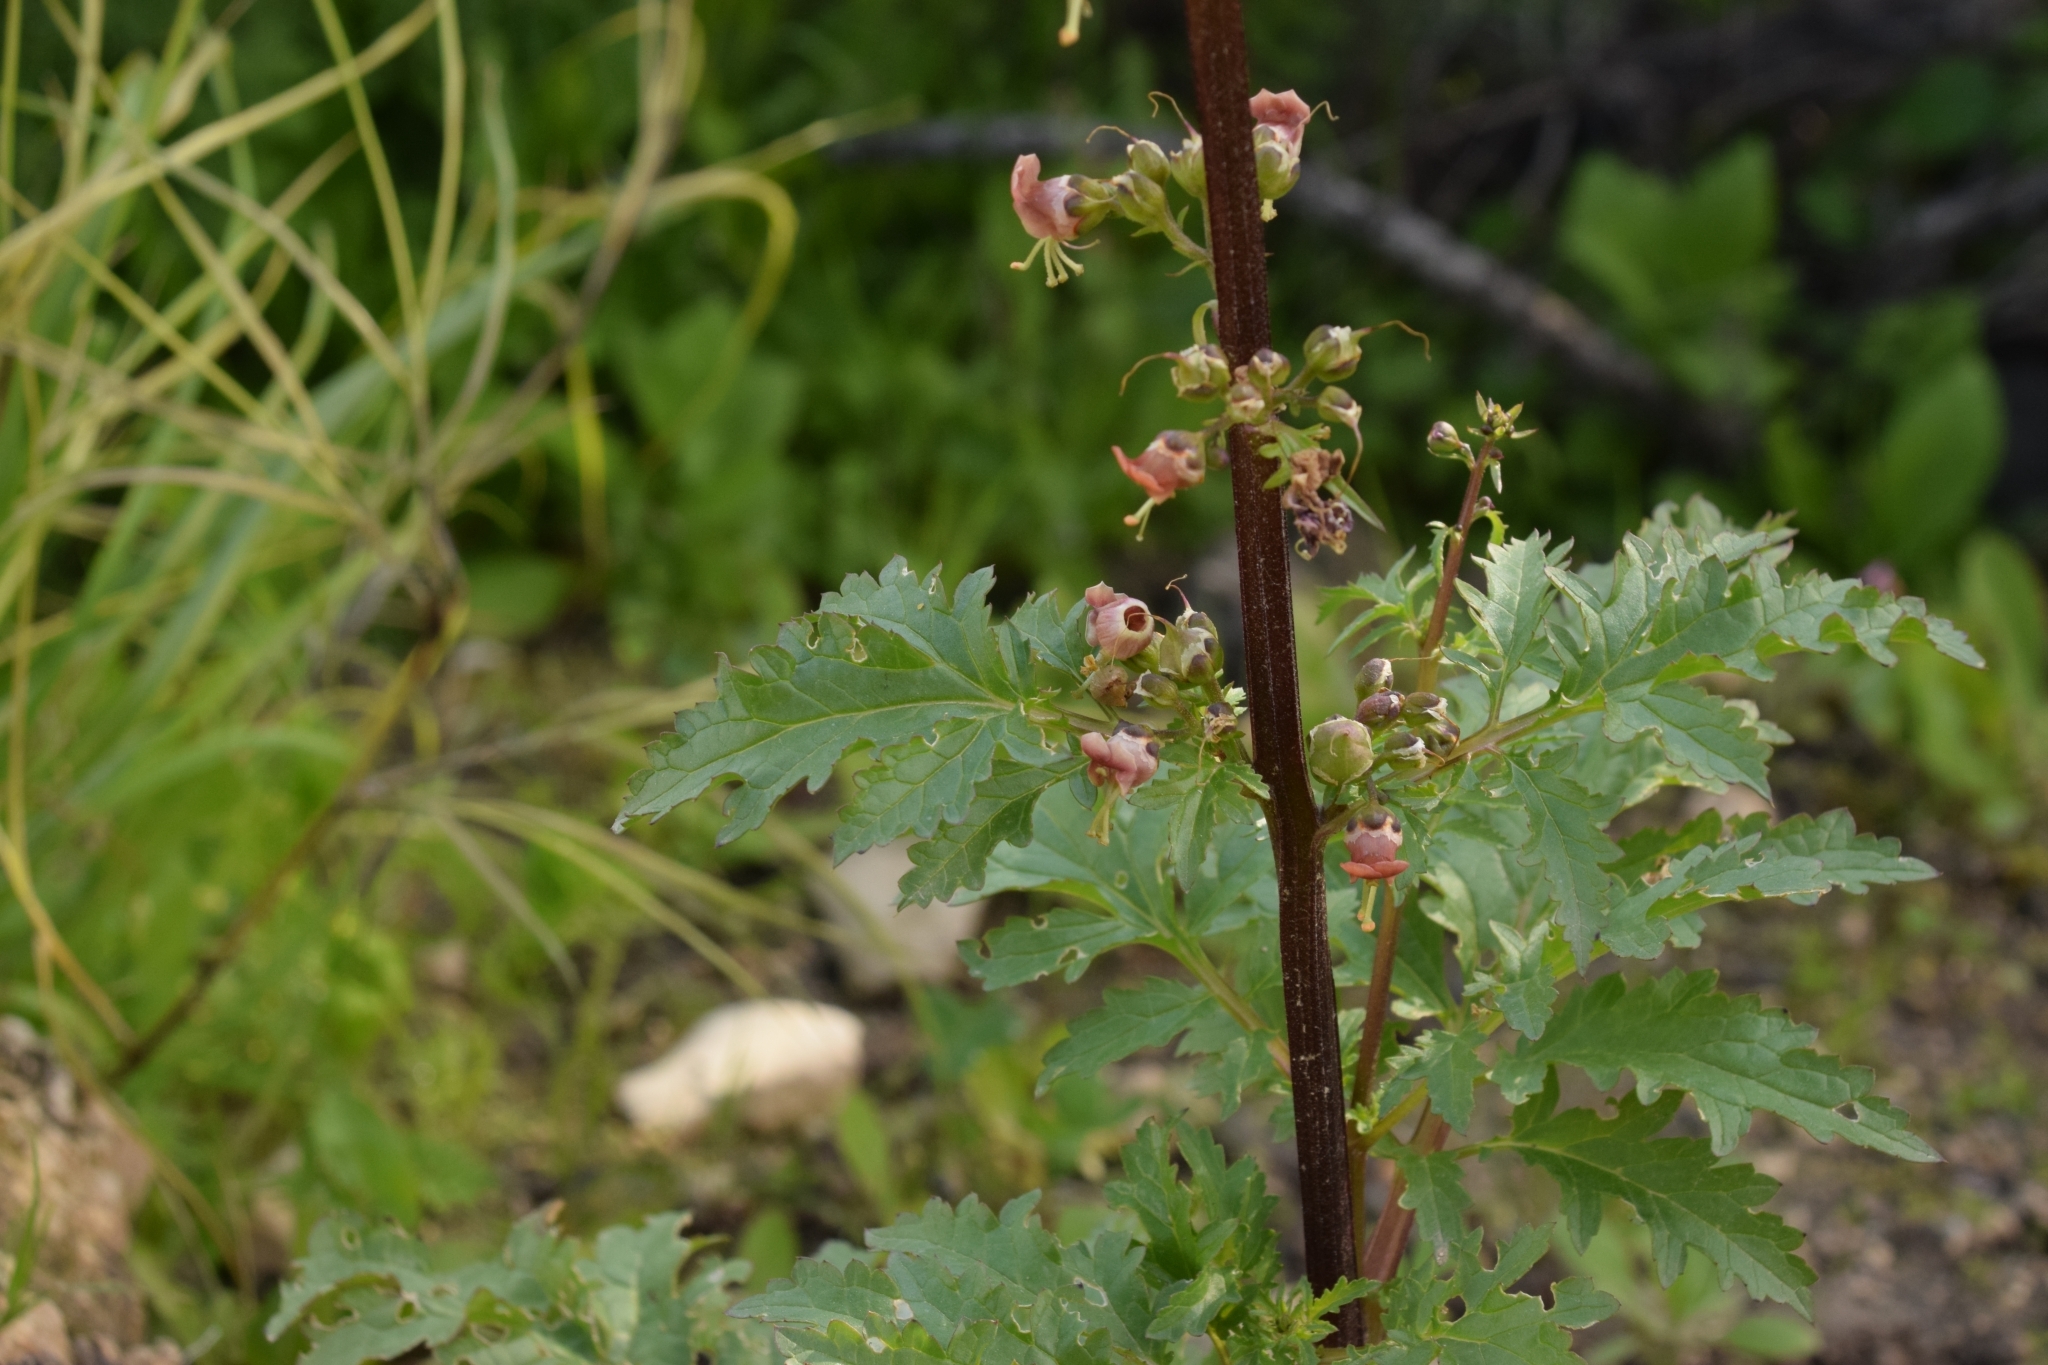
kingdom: Plantae
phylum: Tracheophyta
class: Magnoliopsida
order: Lamiales
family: Scrophulariaceae
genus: Scrophularia
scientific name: Scrophularia rubricaulis
